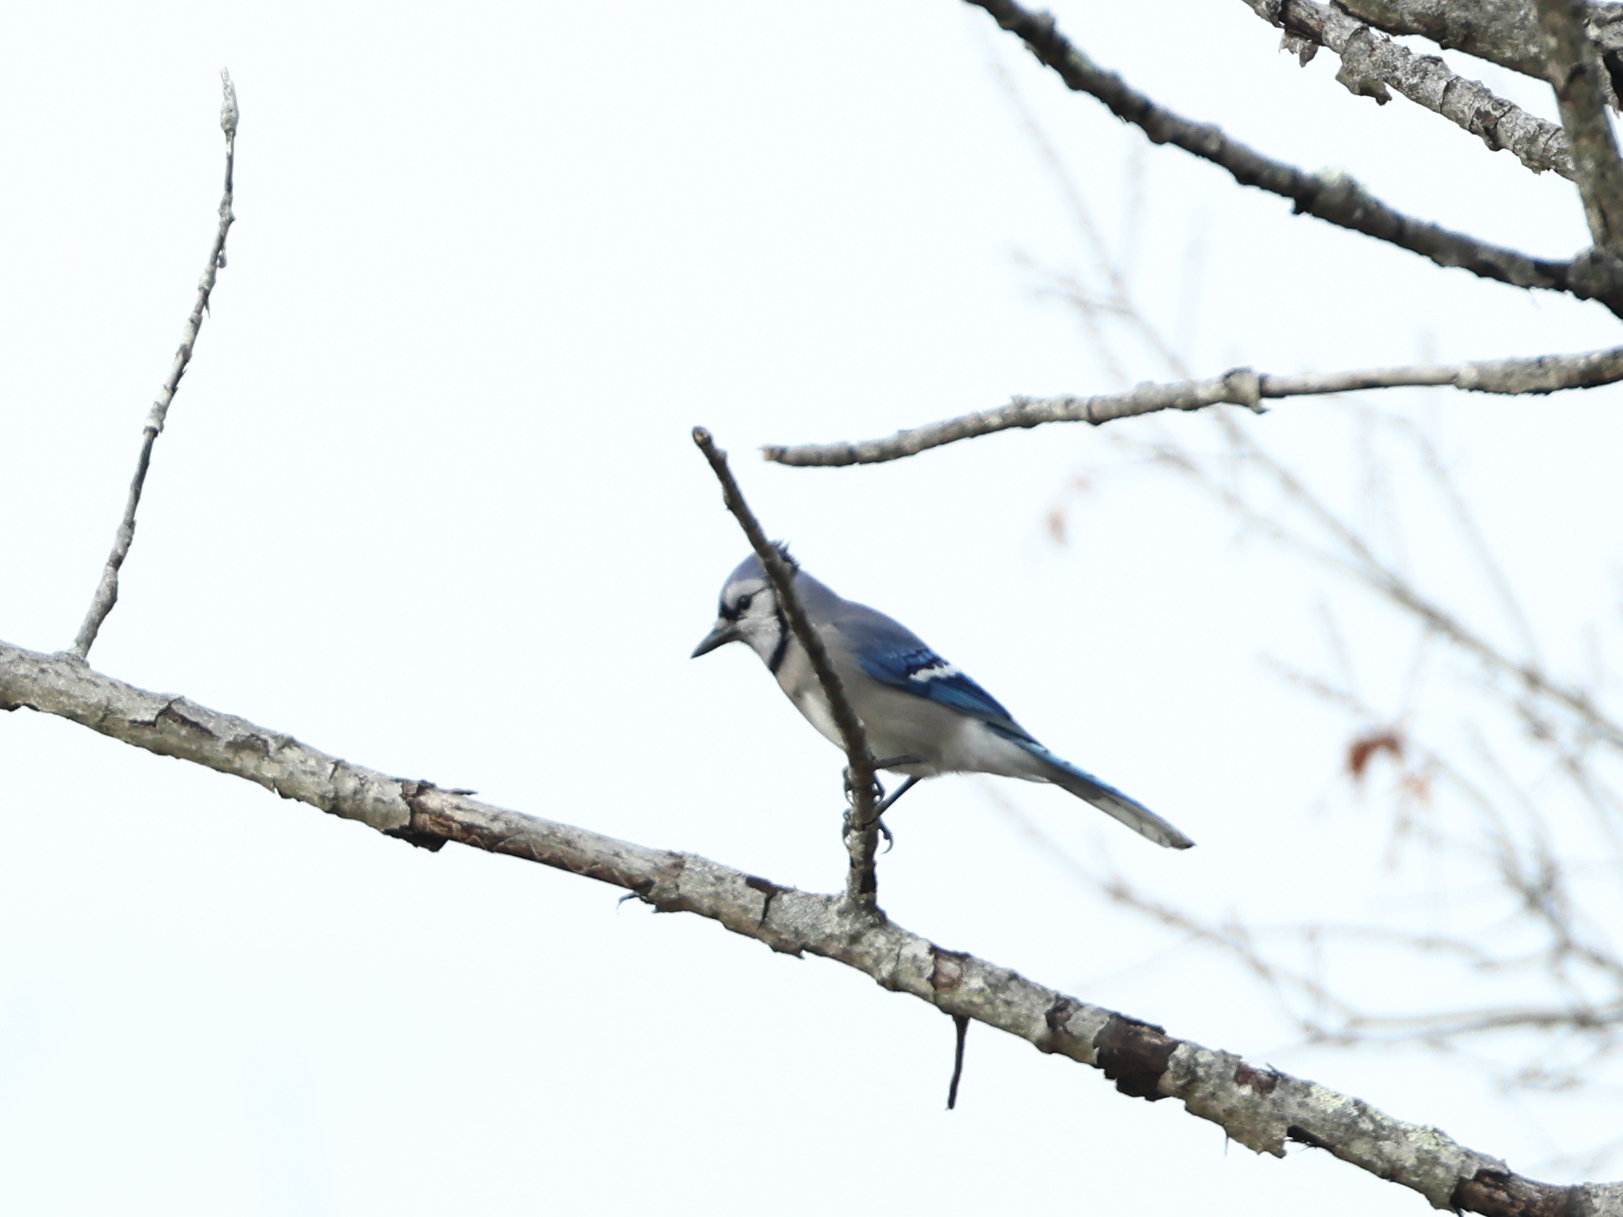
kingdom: Animalia
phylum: Chordata
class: Aves
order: Passeriformes
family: Corvidae
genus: Cyanocitta
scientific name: Cyanocitta cristata
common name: Blue jay
